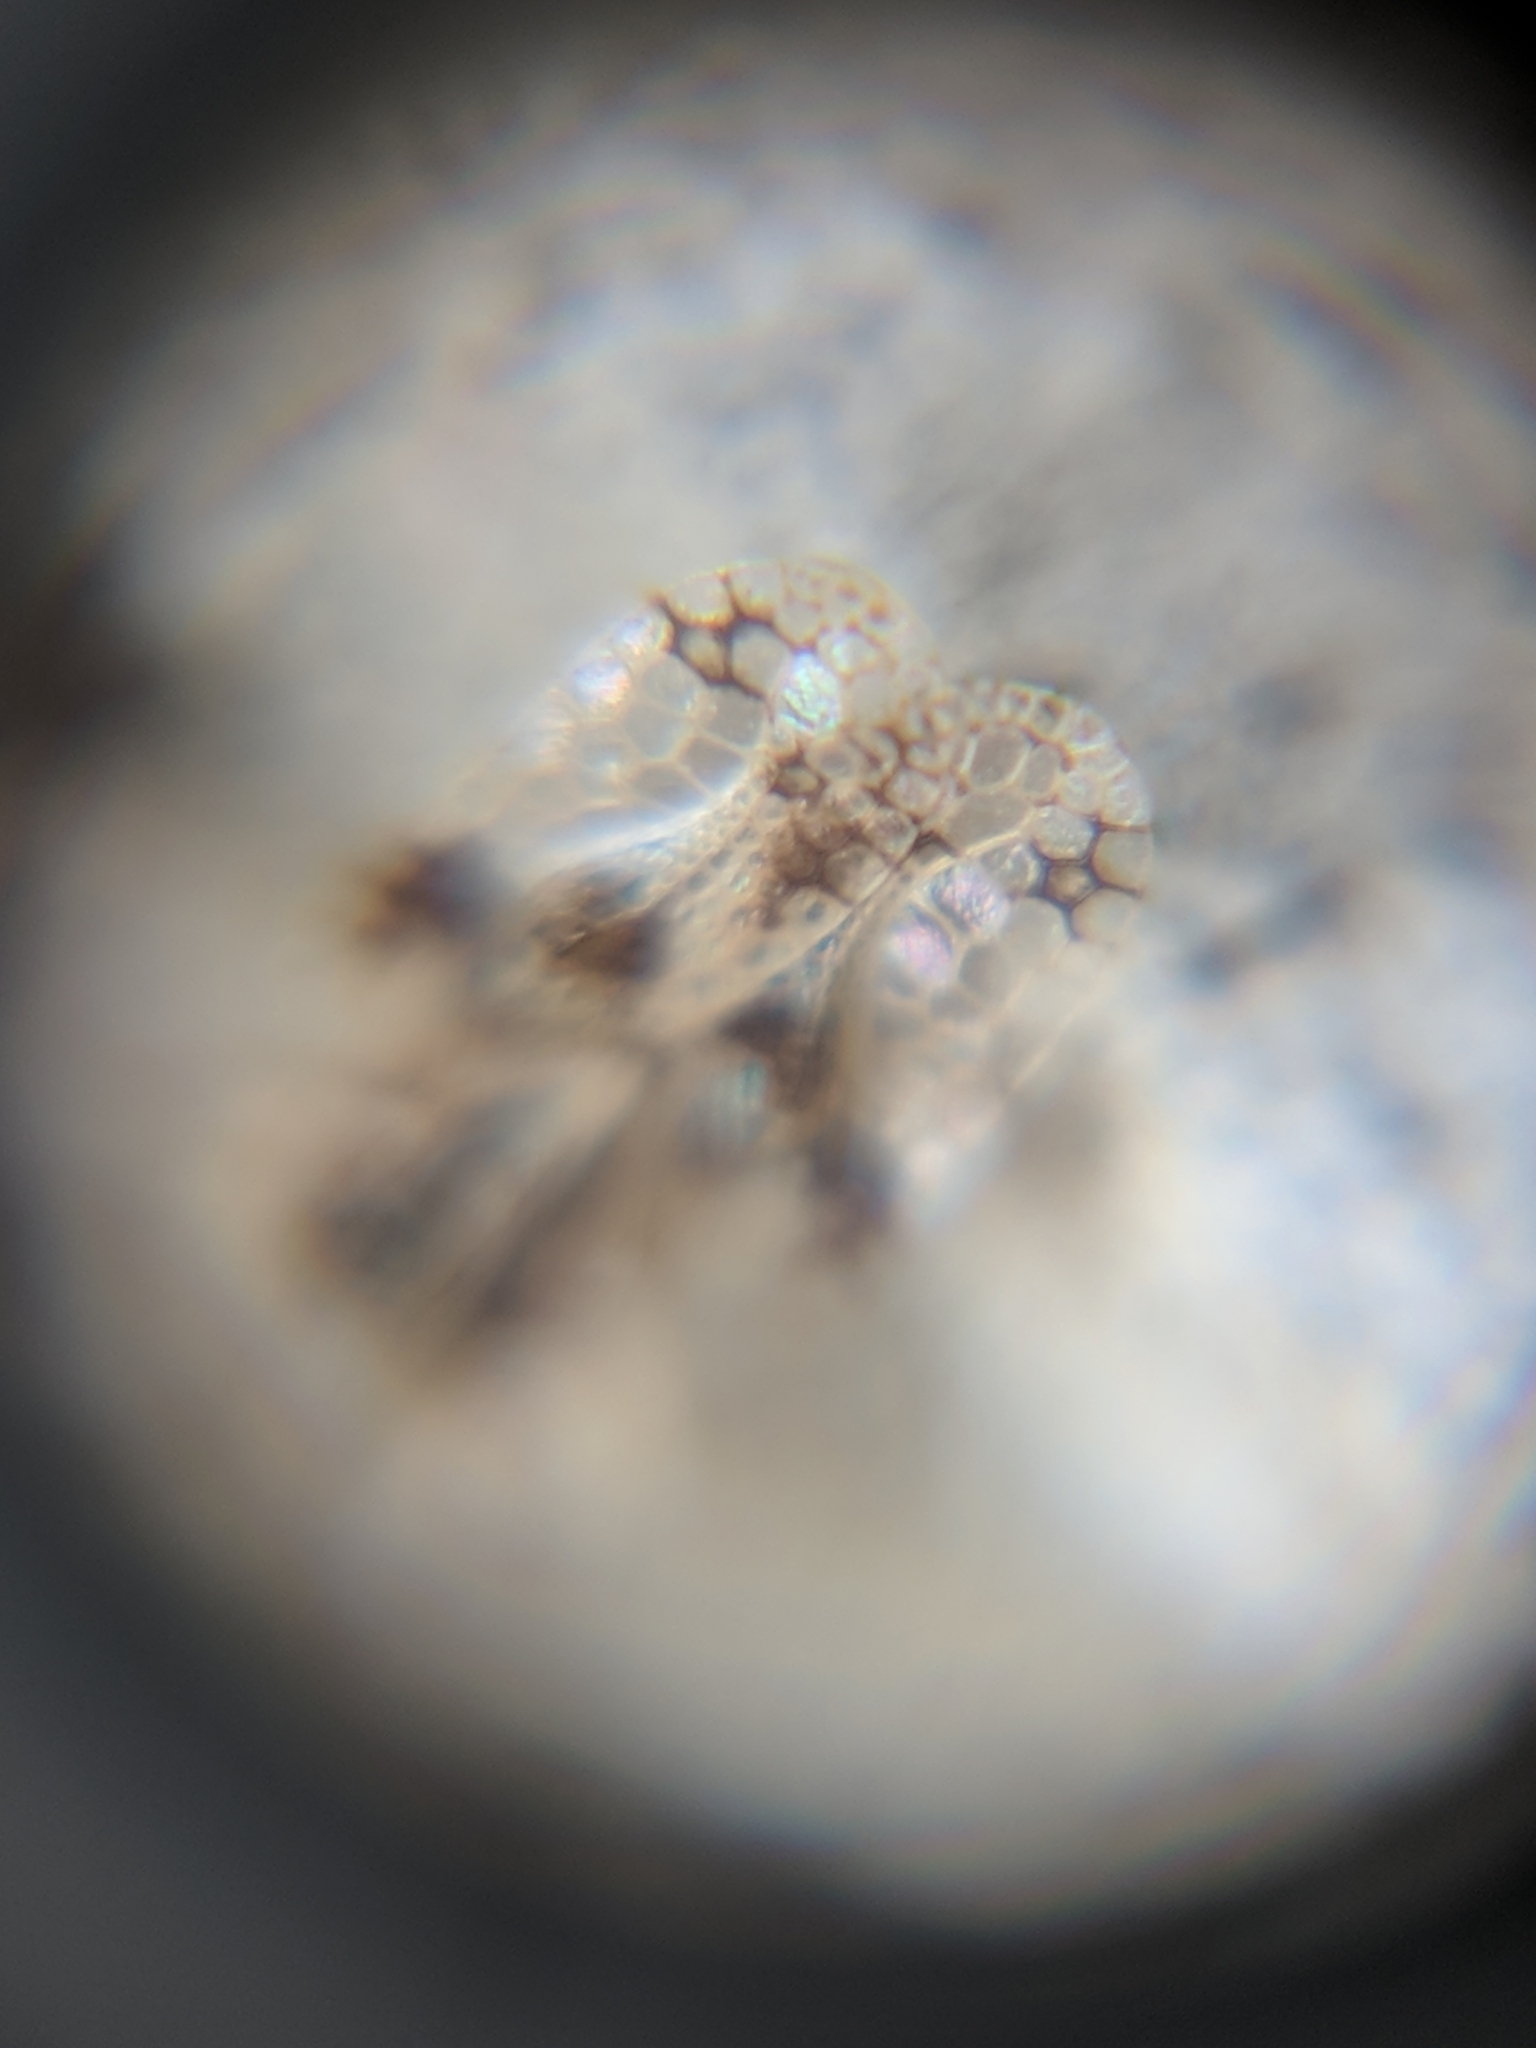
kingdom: Animalia
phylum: Arthropoda
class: Insecta
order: Hemiptera
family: Tingidae
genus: Corythucha
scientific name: Corythucha arcuata
